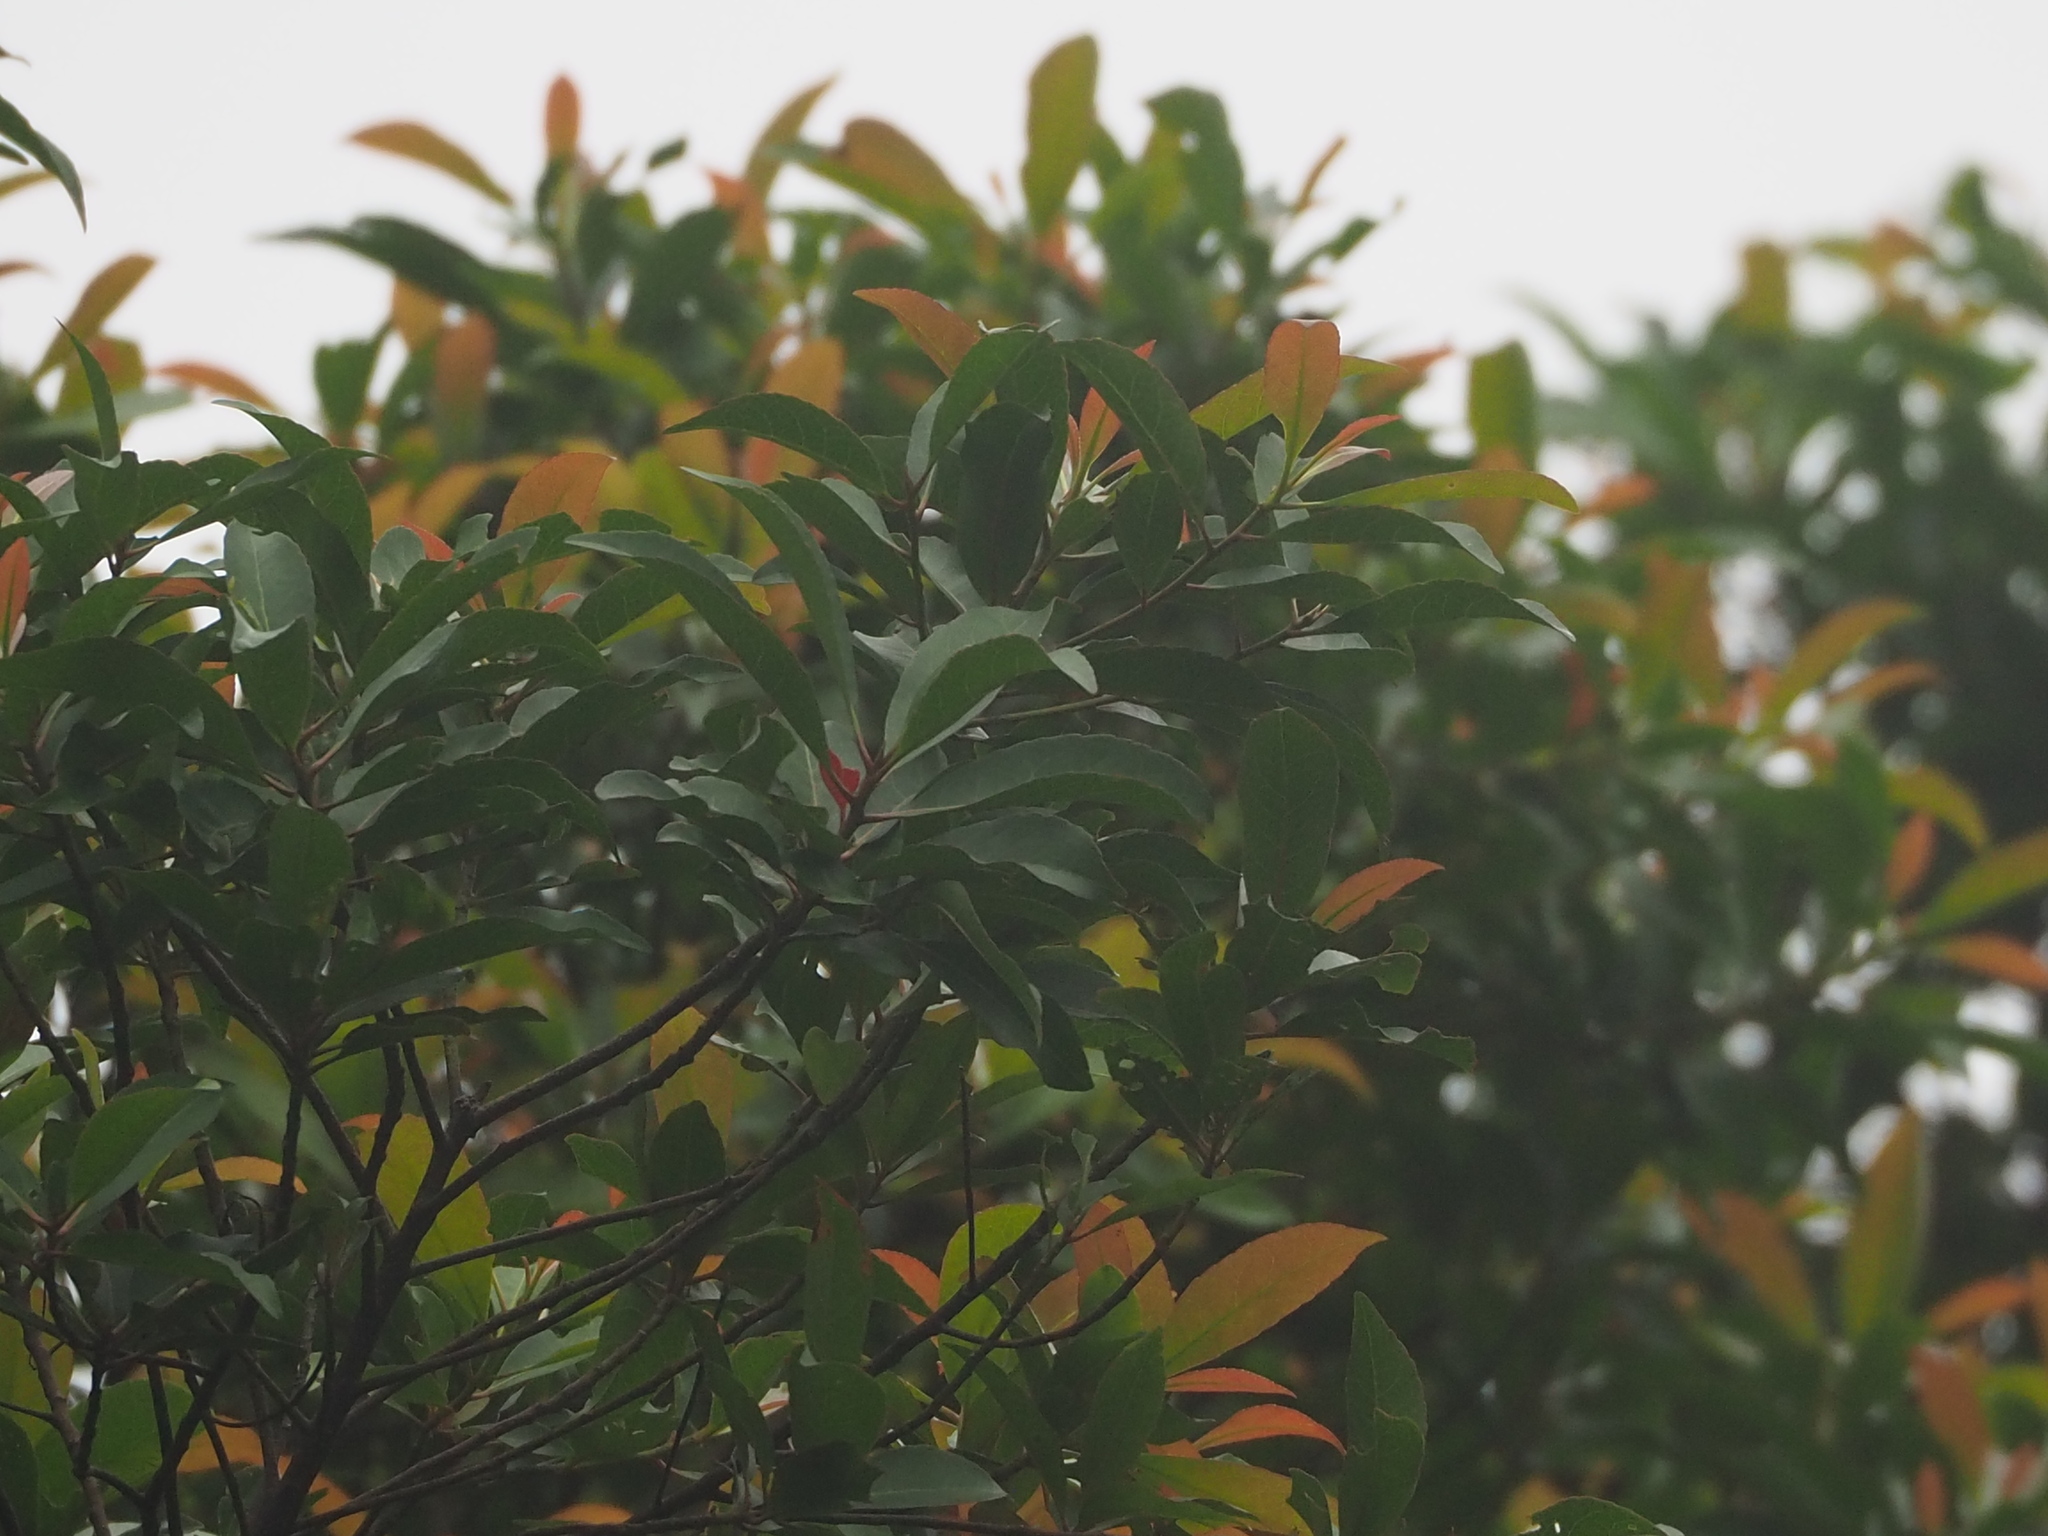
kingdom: Plantae
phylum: Tracheophyta
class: Magnoliopsida
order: Oxalidales
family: Elaeocarpaceae
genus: Elaeocarpus
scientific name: Elaeocarpus decipiens
